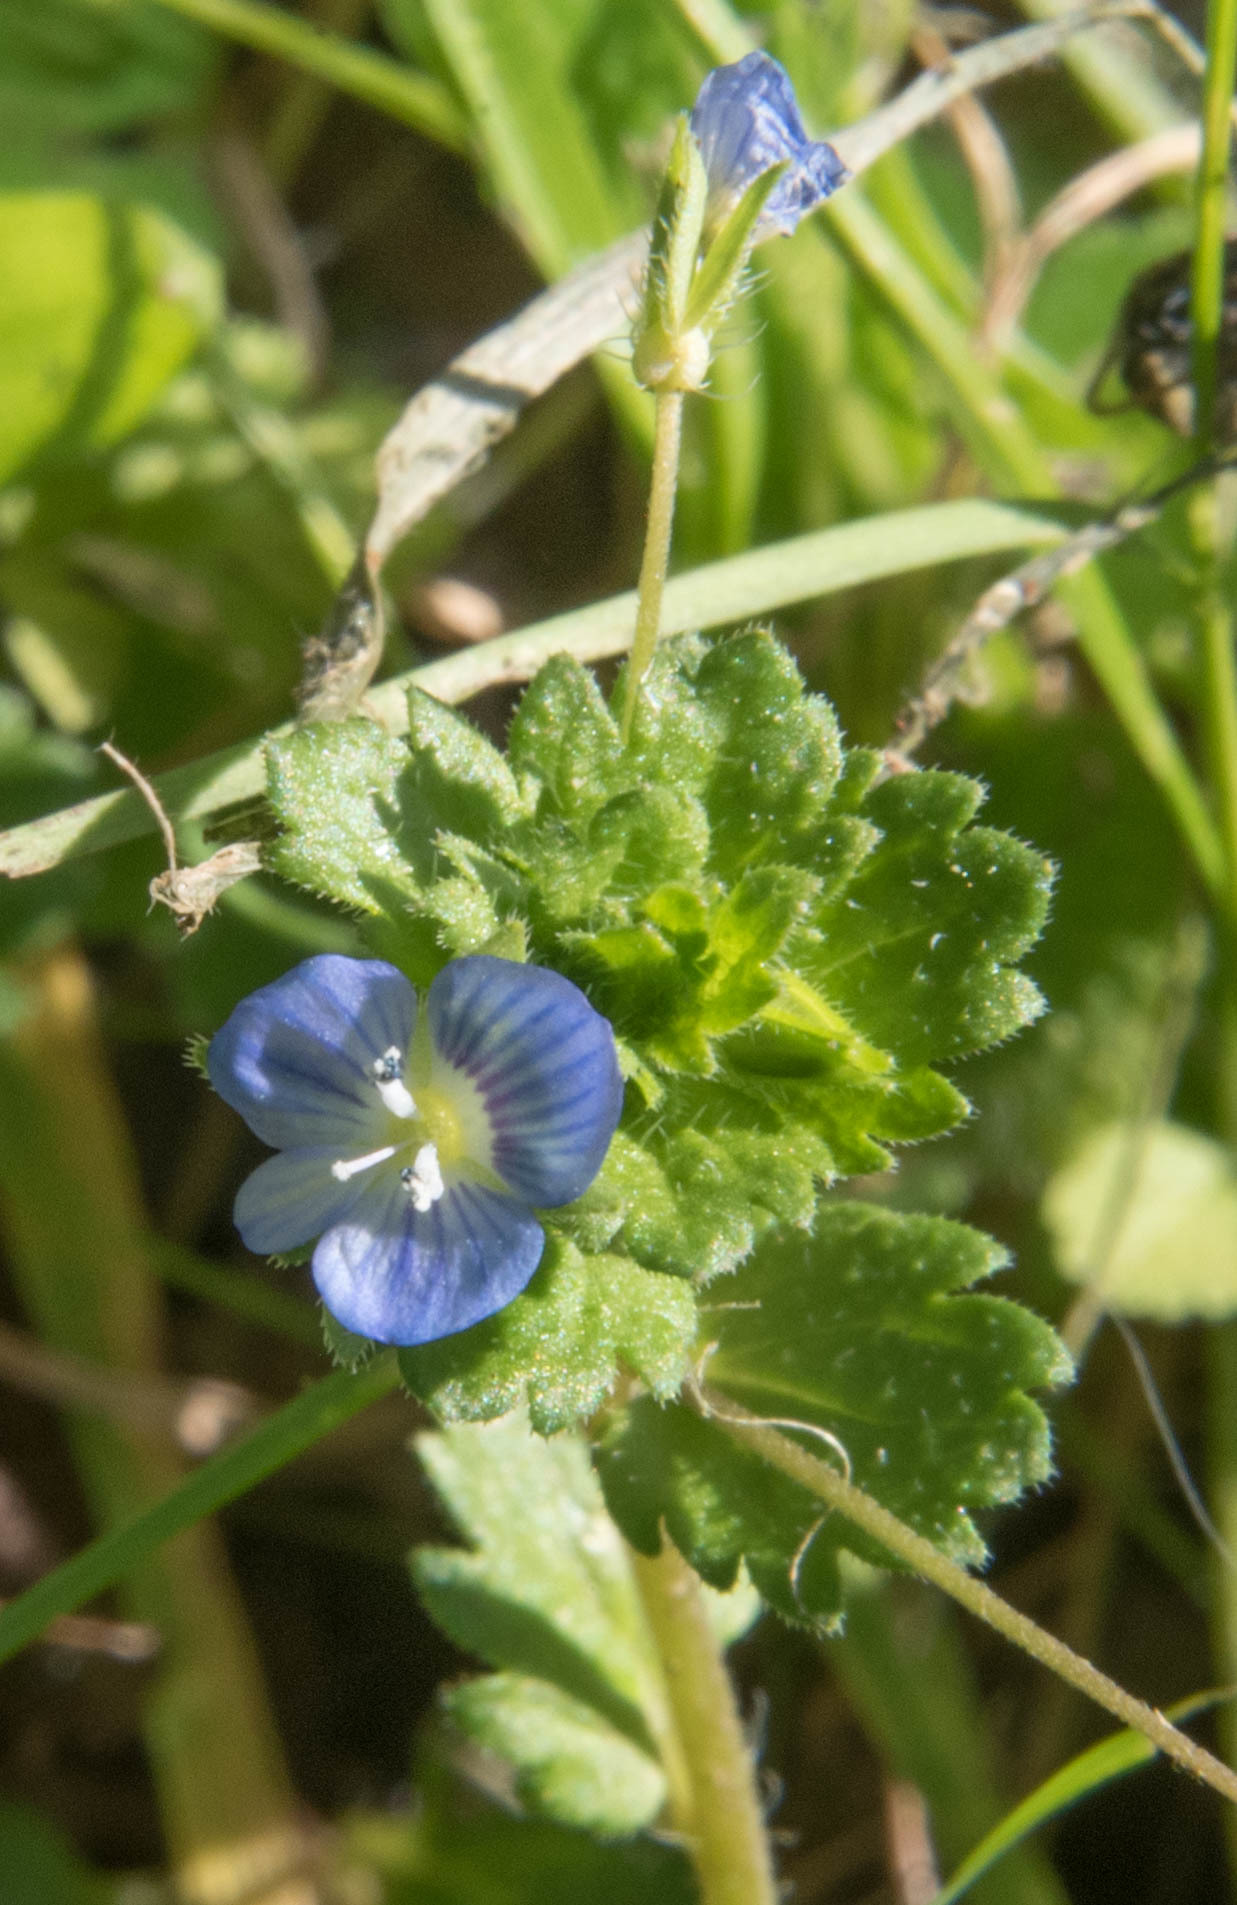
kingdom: Plantae
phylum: Tracheophyta
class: Magnoliopsida
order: Lamiales
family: Plantaginaceae
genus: Veronica
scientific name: Veronica persica
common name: Common field-speedwell
